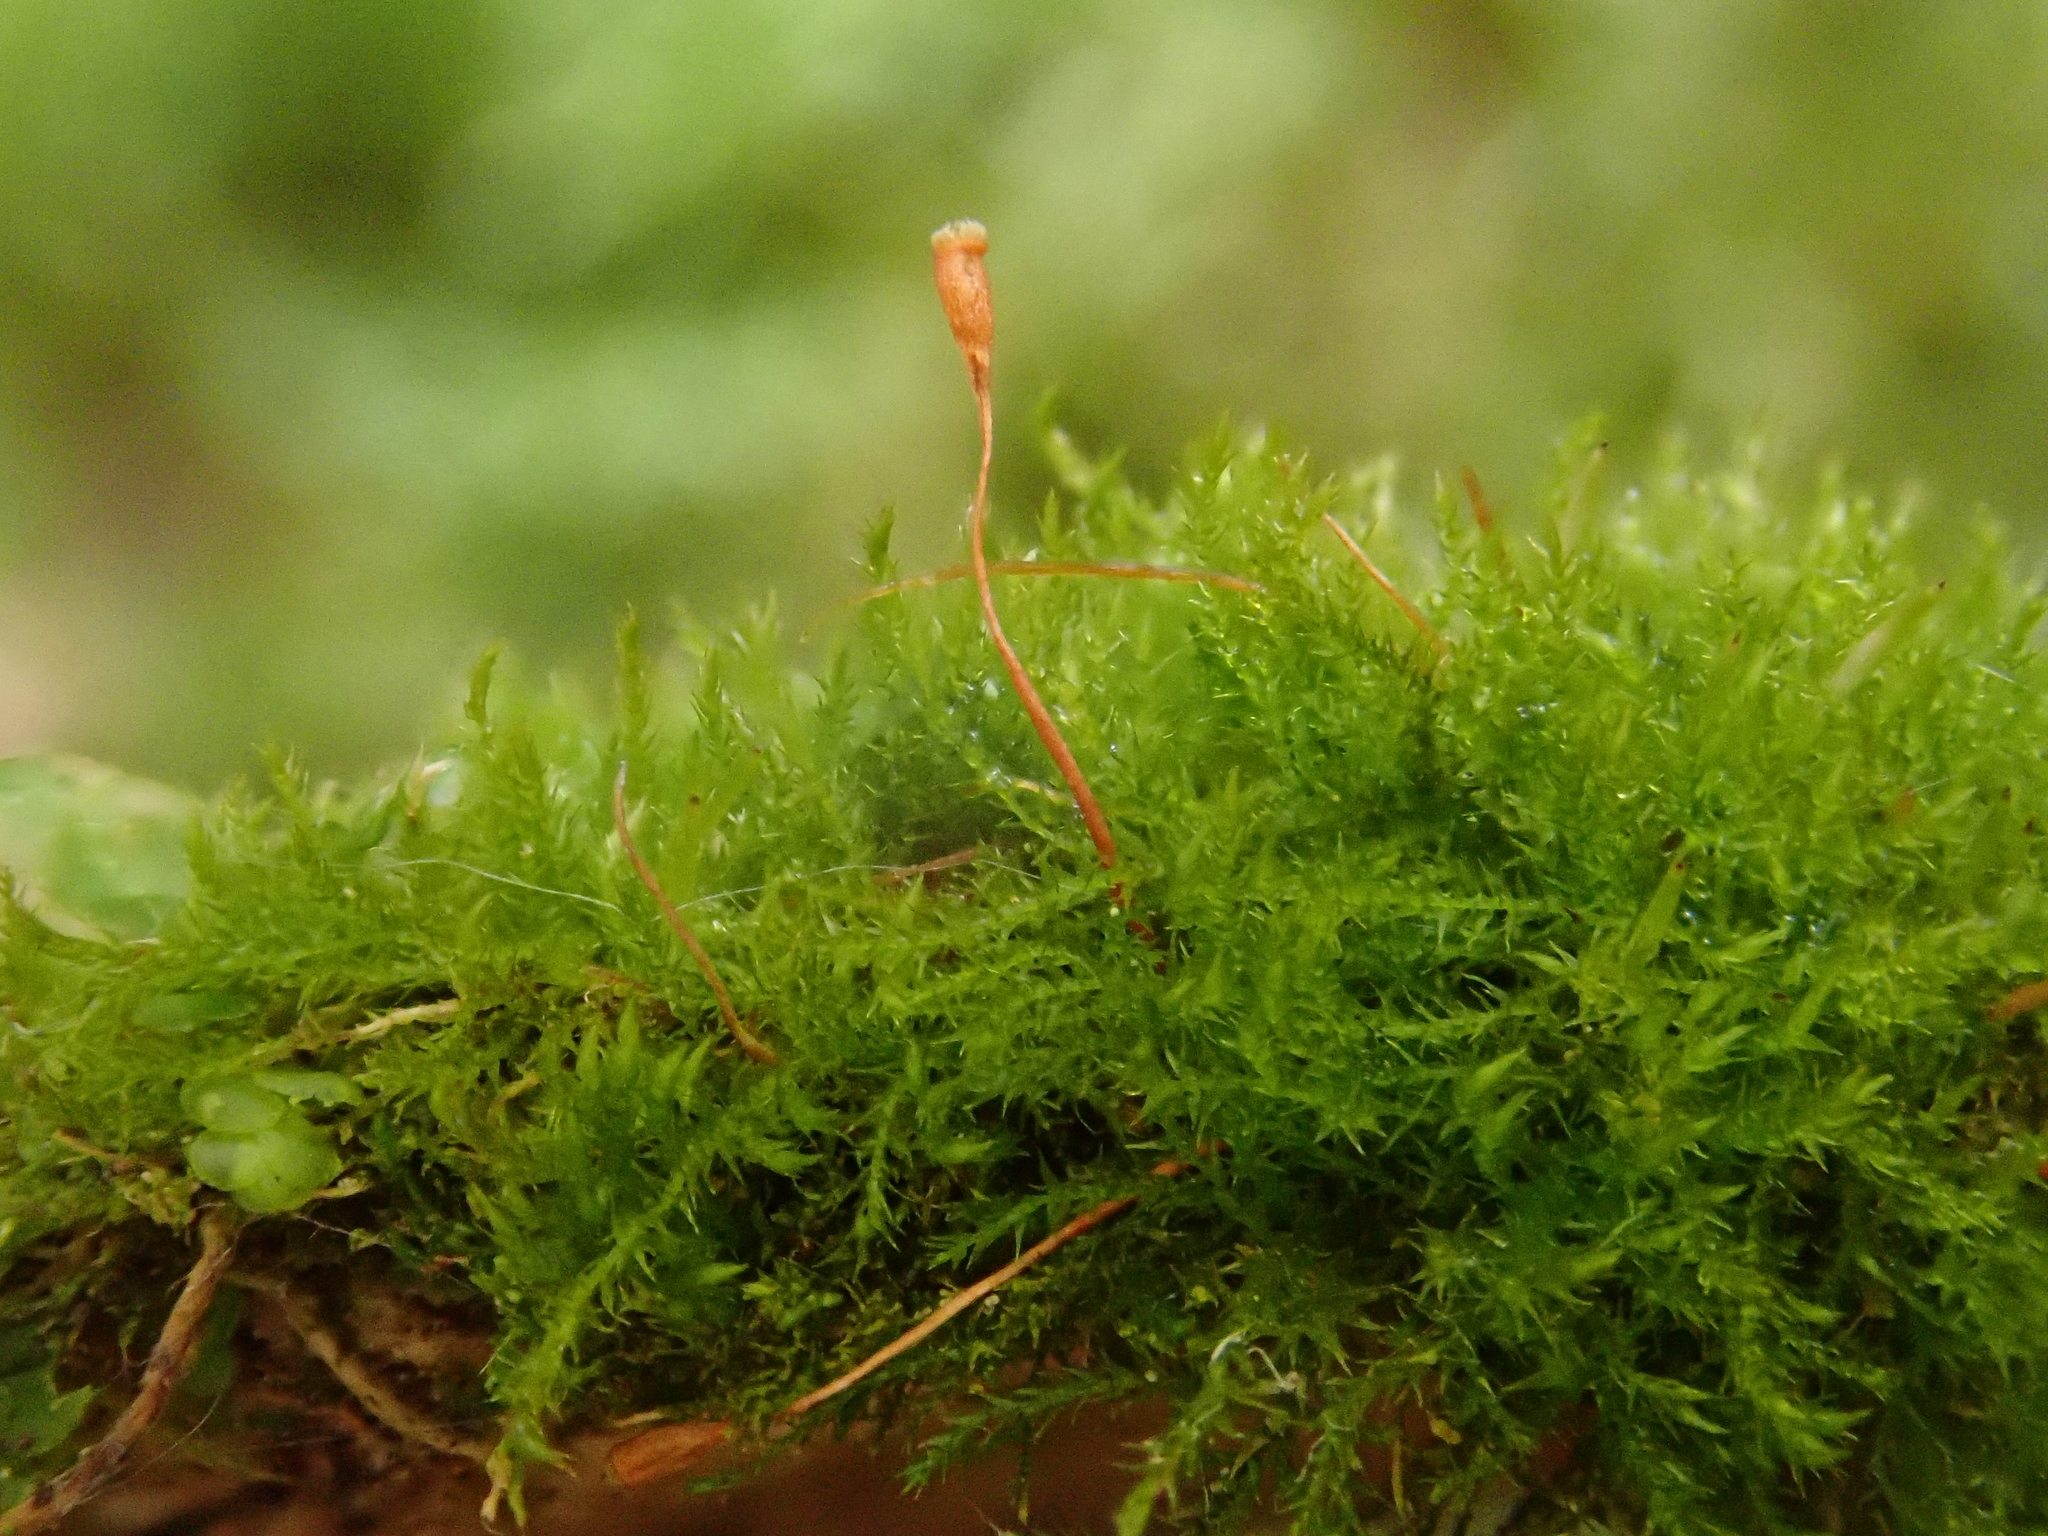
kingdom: Plantae
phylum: Bryophyta
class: Bryopsida
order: Hypnales
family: Amblystegiaceae
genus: Pseudoamblystegium
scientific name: Pseudoamblystegium subtile
